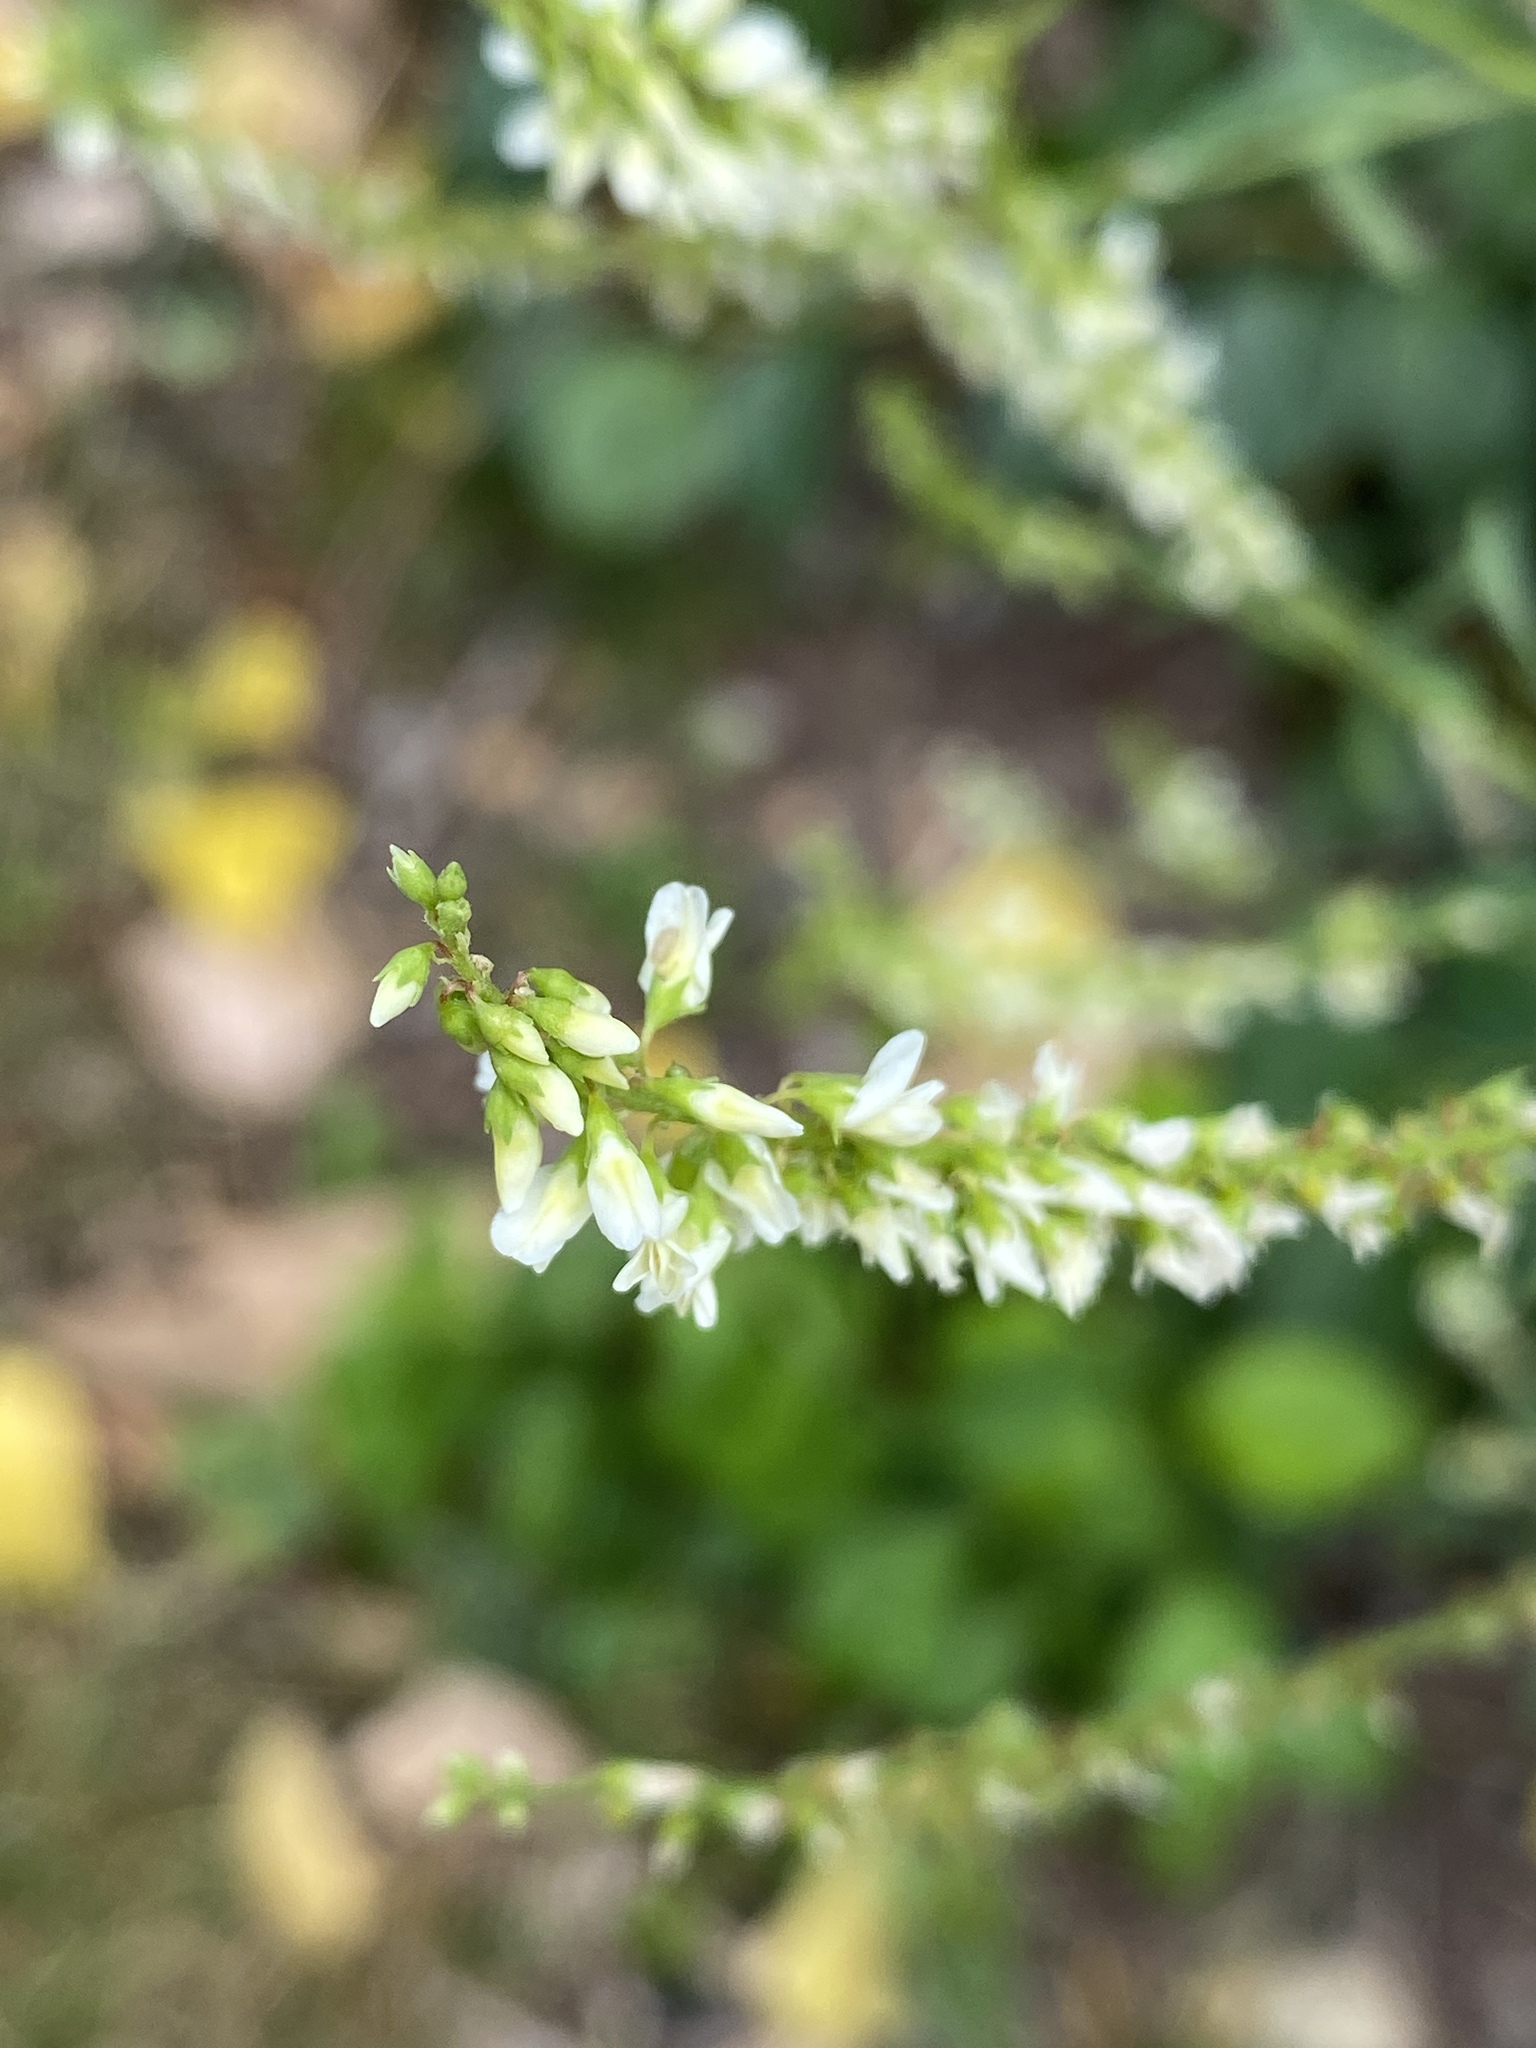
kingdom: Plantae
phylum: Tracheophyta
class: Magnoliopsida
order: Fabales
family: Fabaceae
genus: Melilotus
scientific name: Melilotus albus
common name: White melilot
